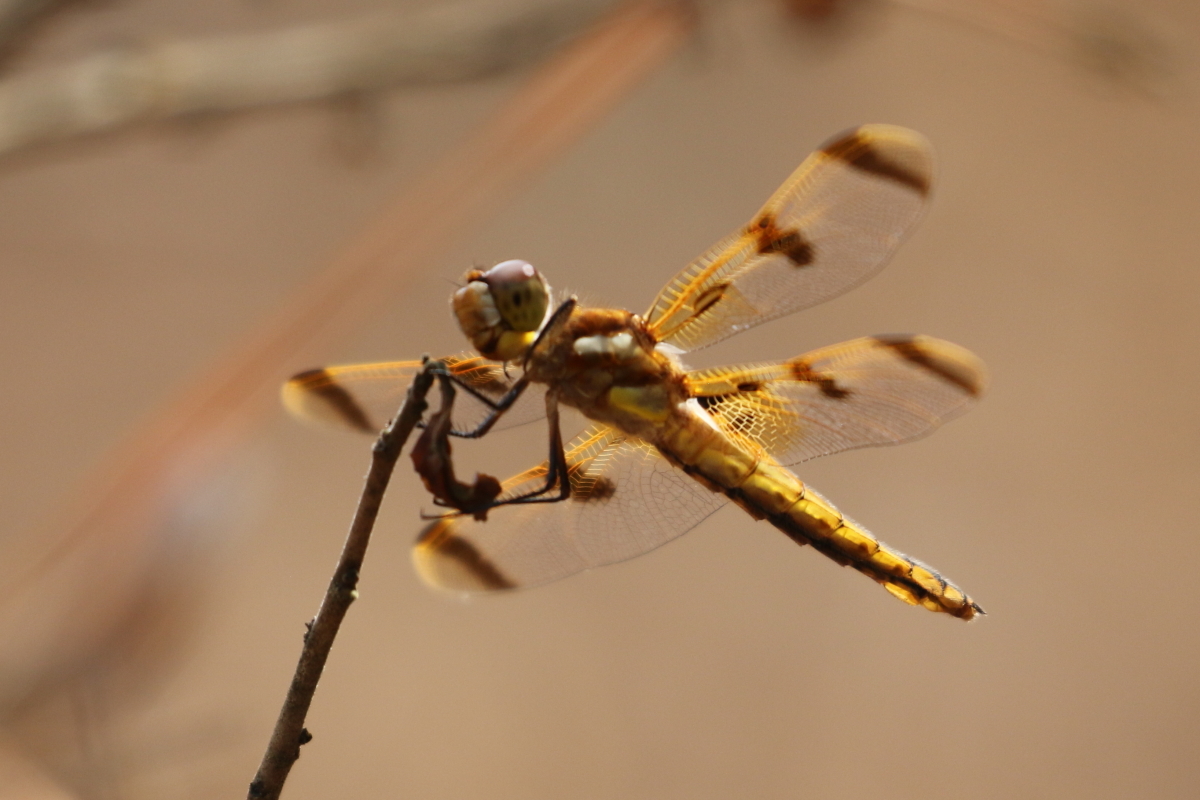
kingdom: Animalia
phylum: Arthropoda
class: Insecta
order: Odonata
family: Libellulidae
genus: Libellula
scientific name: Libellula semifasciata
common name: Painted skimmer
